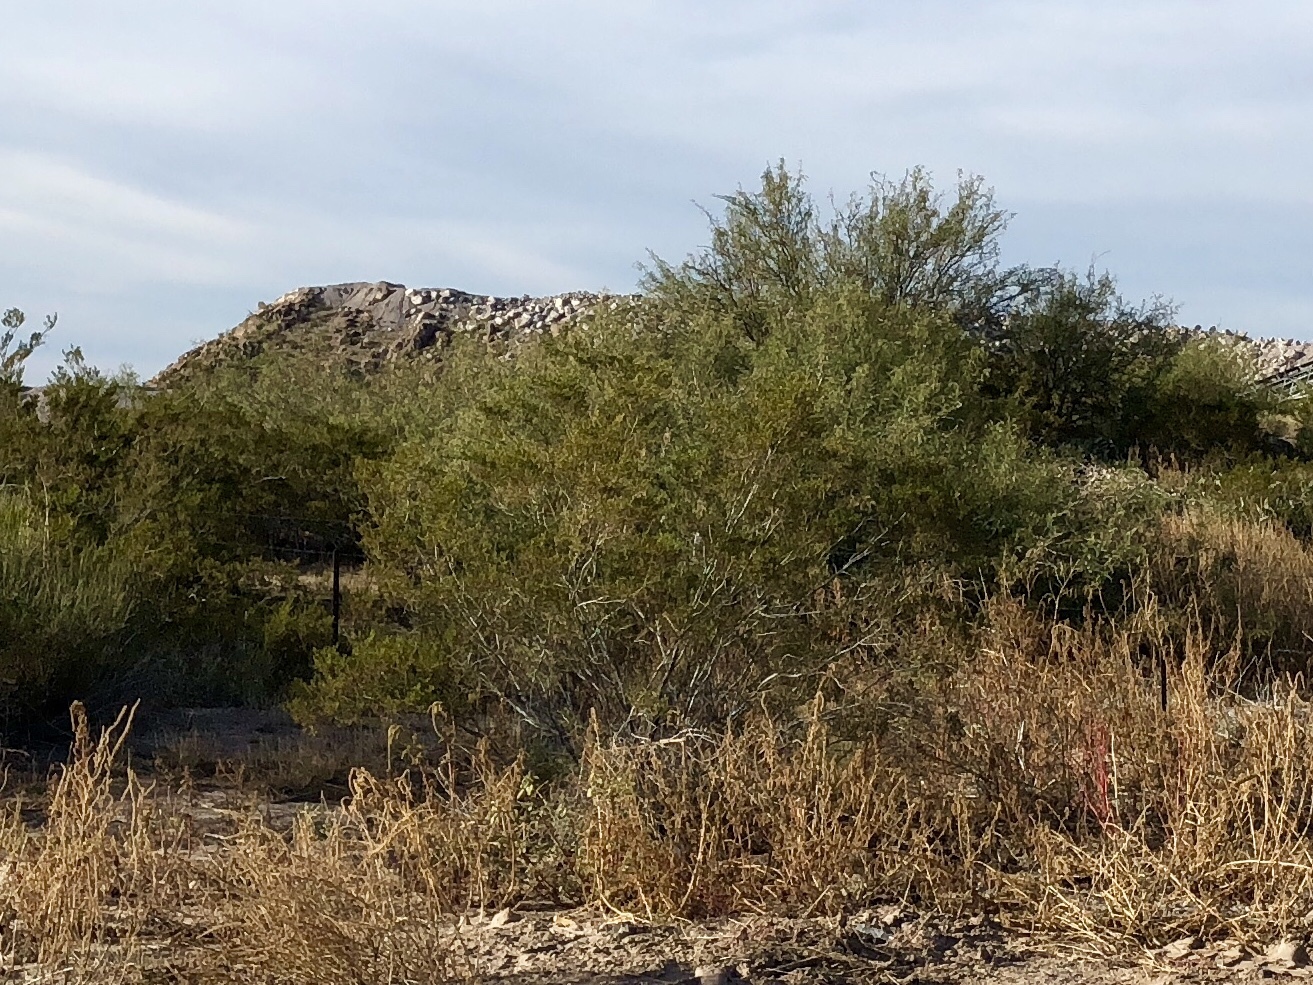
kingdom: Plantae
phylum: Tracheophyta
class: Magnoliopsida
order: Zygophyllales
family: Zygophyllaceae
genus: Larrea
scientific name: Larrea tridentata
